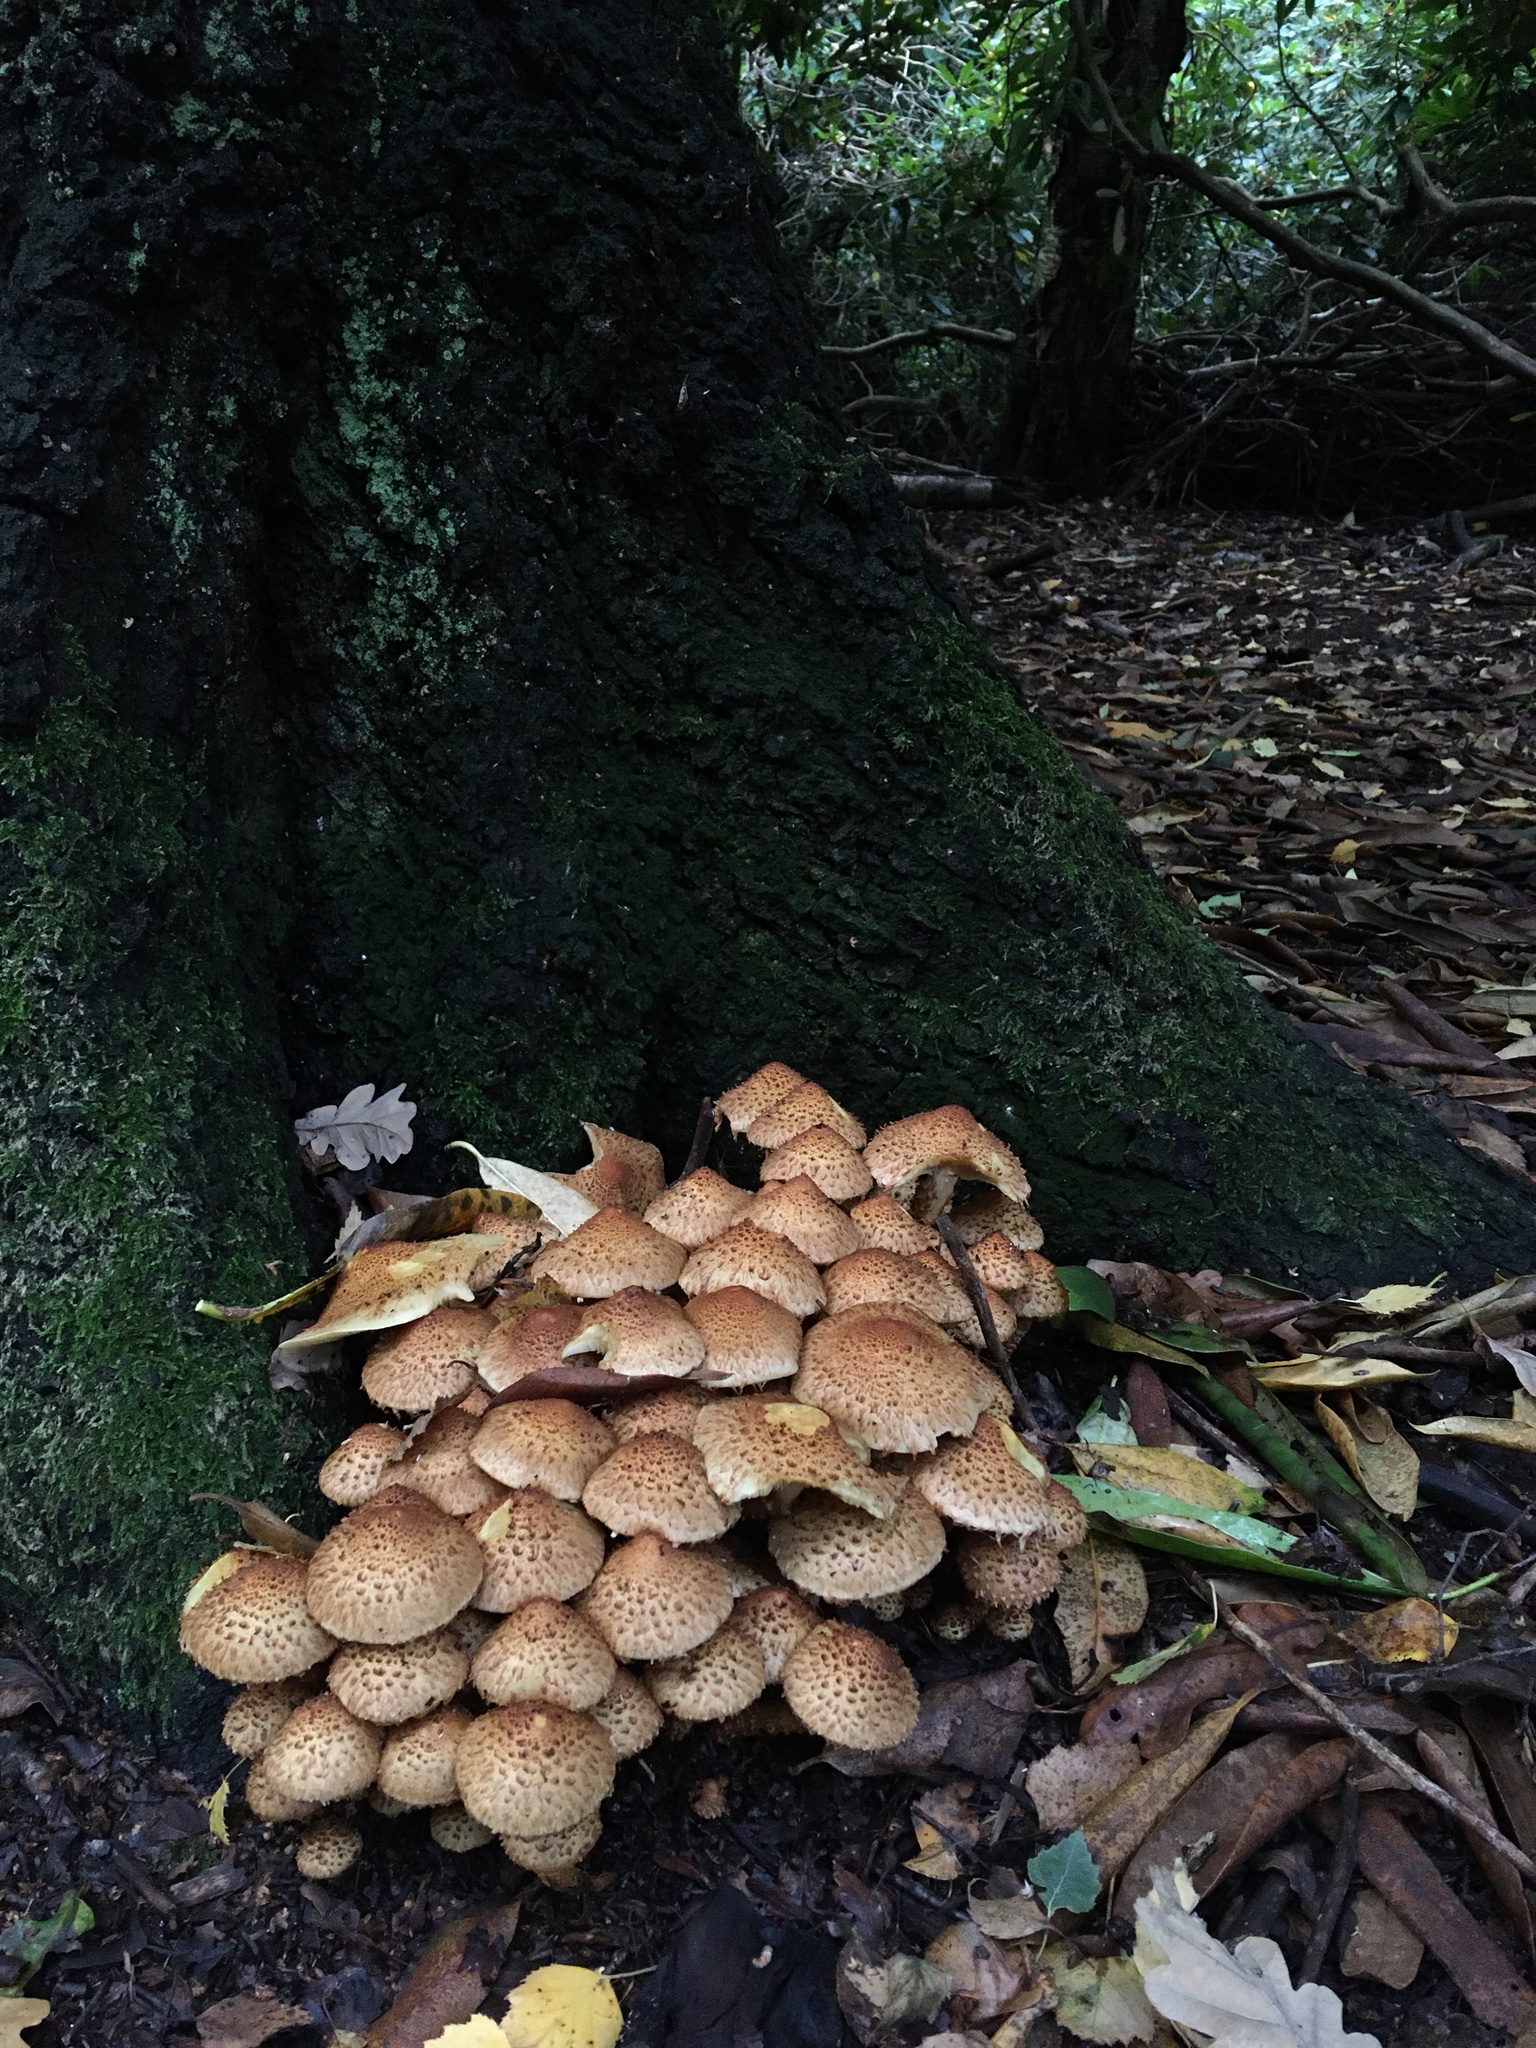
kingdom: Fungi
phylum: Basidiomycota
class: Agaricomycetes
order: Agaricales
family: Strophariaceae
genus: Pholiota
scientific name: Pholiota squarrosa
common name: Shaggy pholiota
